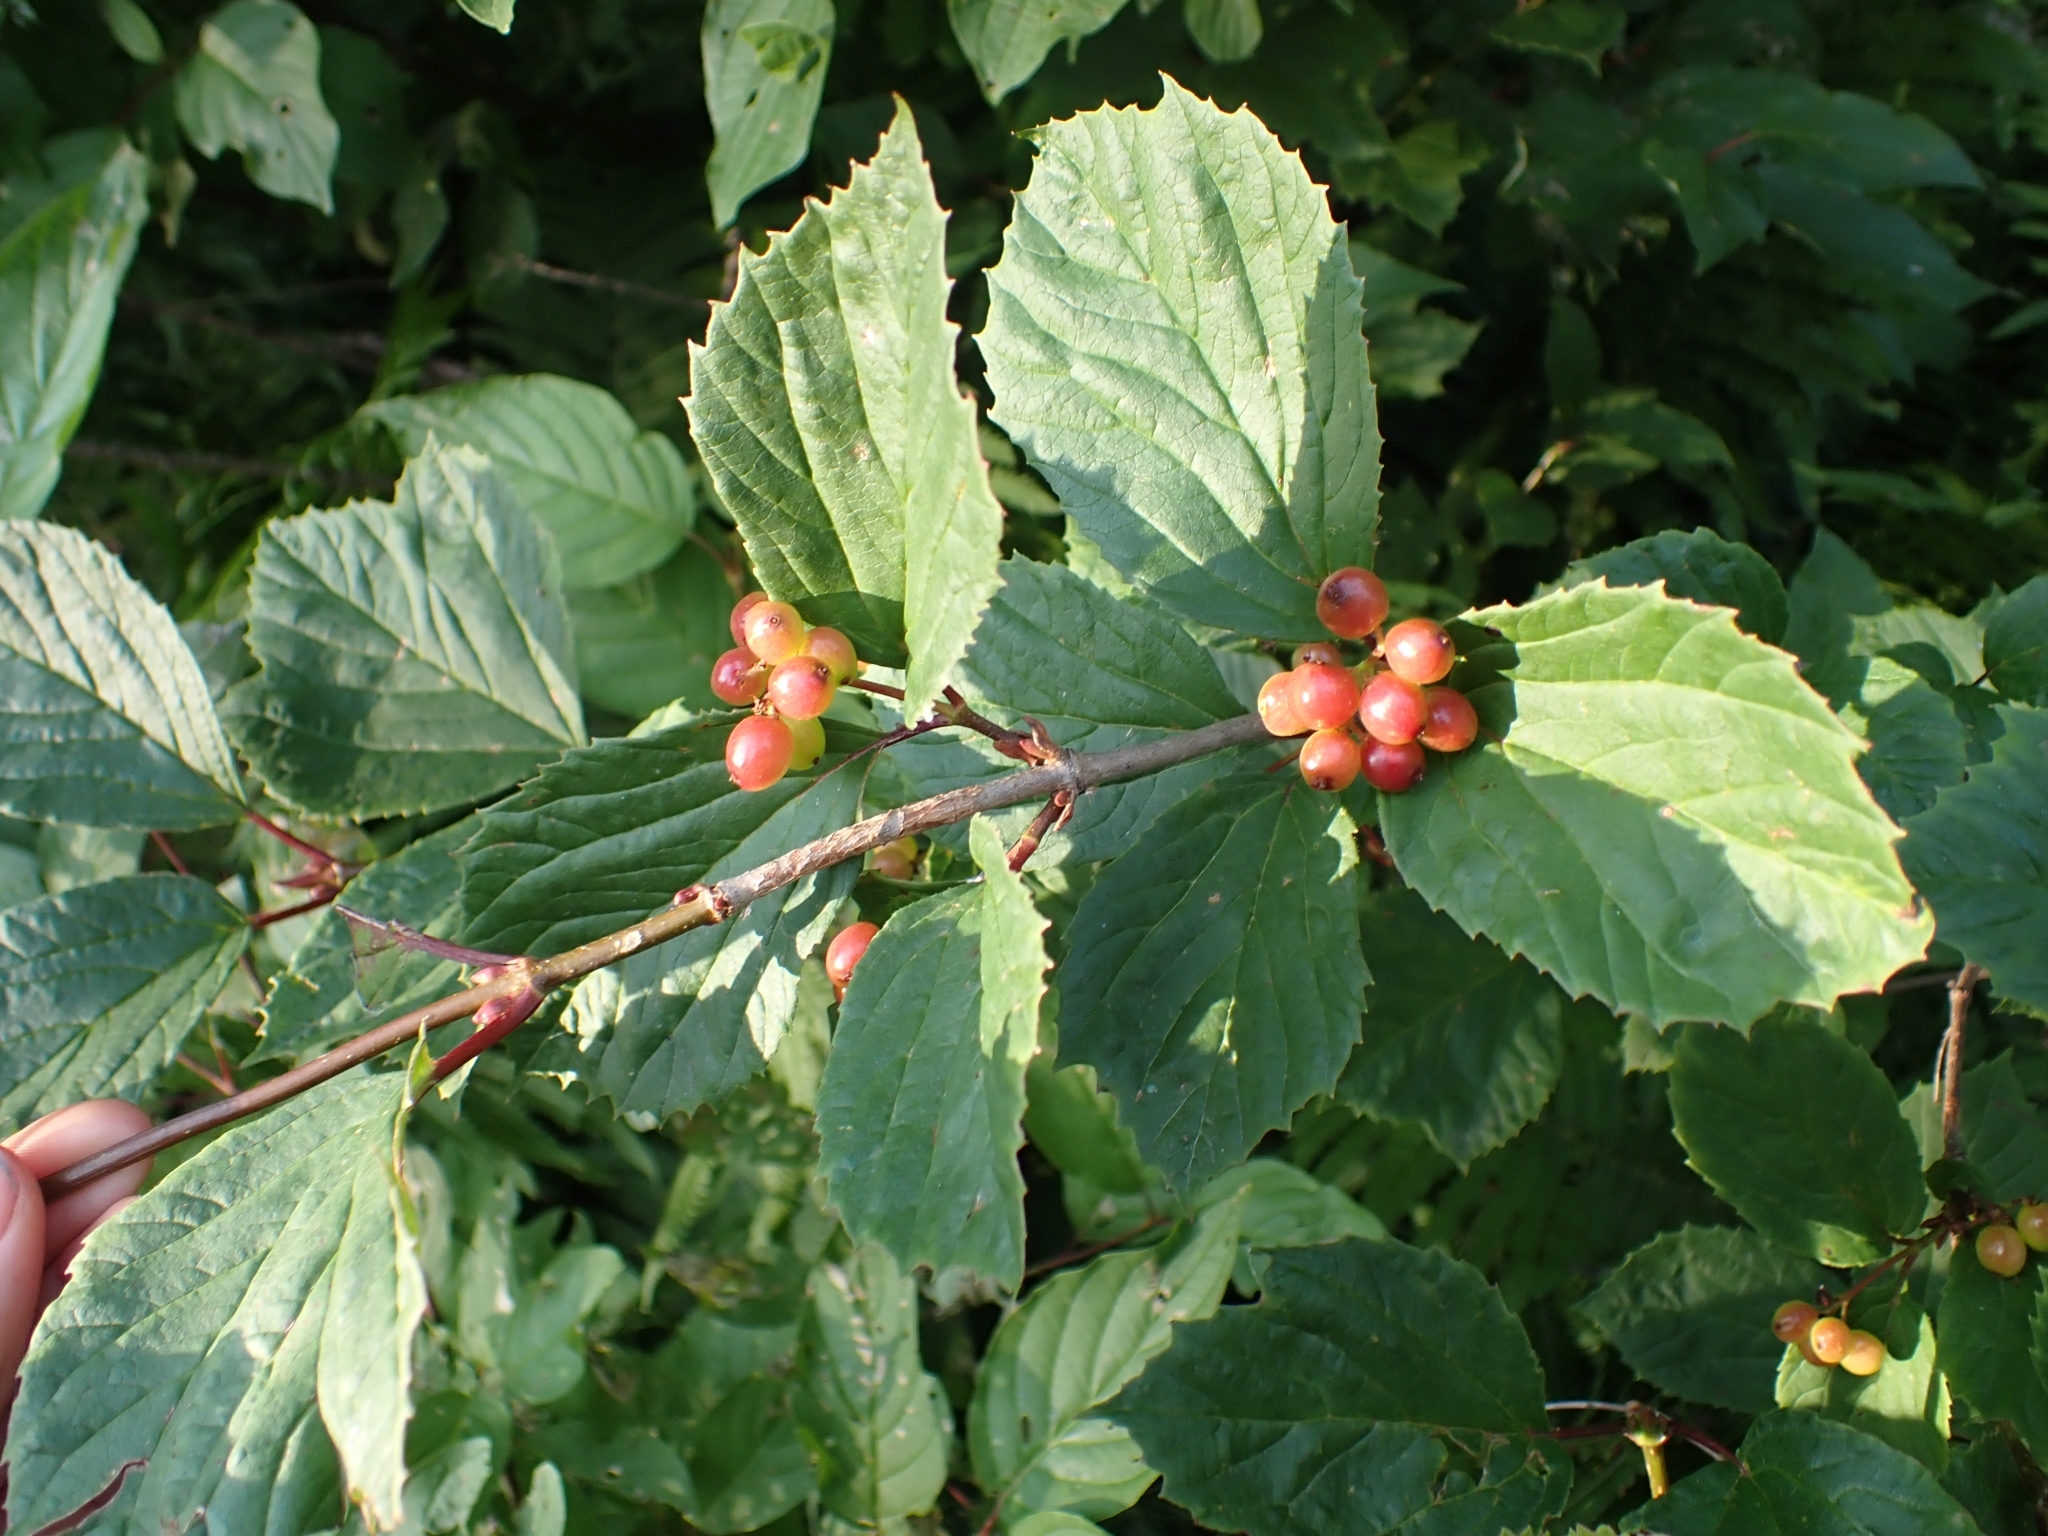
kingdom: Plantae
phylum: Tracheophyta
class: Magnoliopsida
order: Dipsacales
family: Viburnaceae
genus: Viburnum
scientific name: Viburnum edule
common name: Mooseberry
